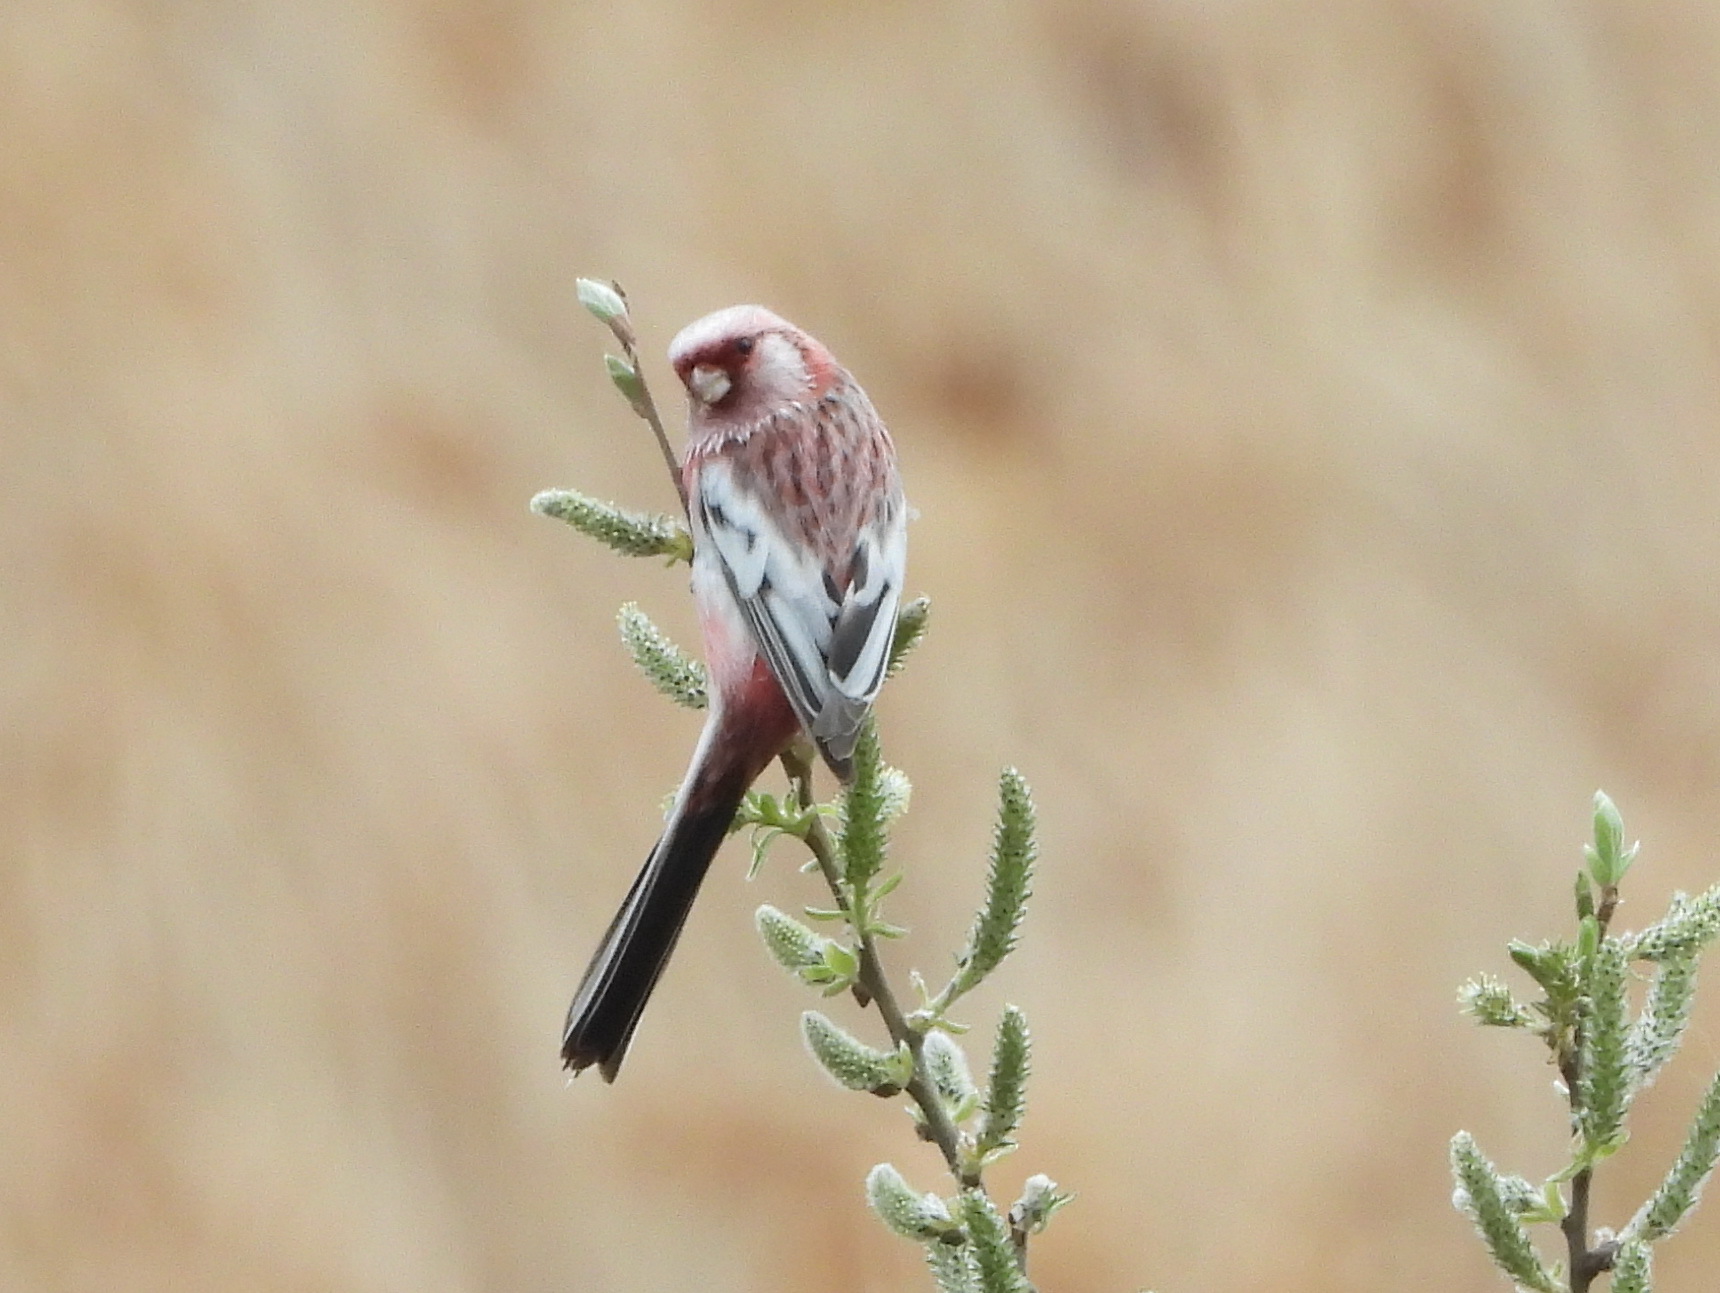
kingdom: Animalia
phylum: Chordata
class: Aves
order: Passeriformes
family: Fringillidae
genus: Carpodacus
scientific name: Carpodacus sibiricus
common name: Long-tailed rosefinch
